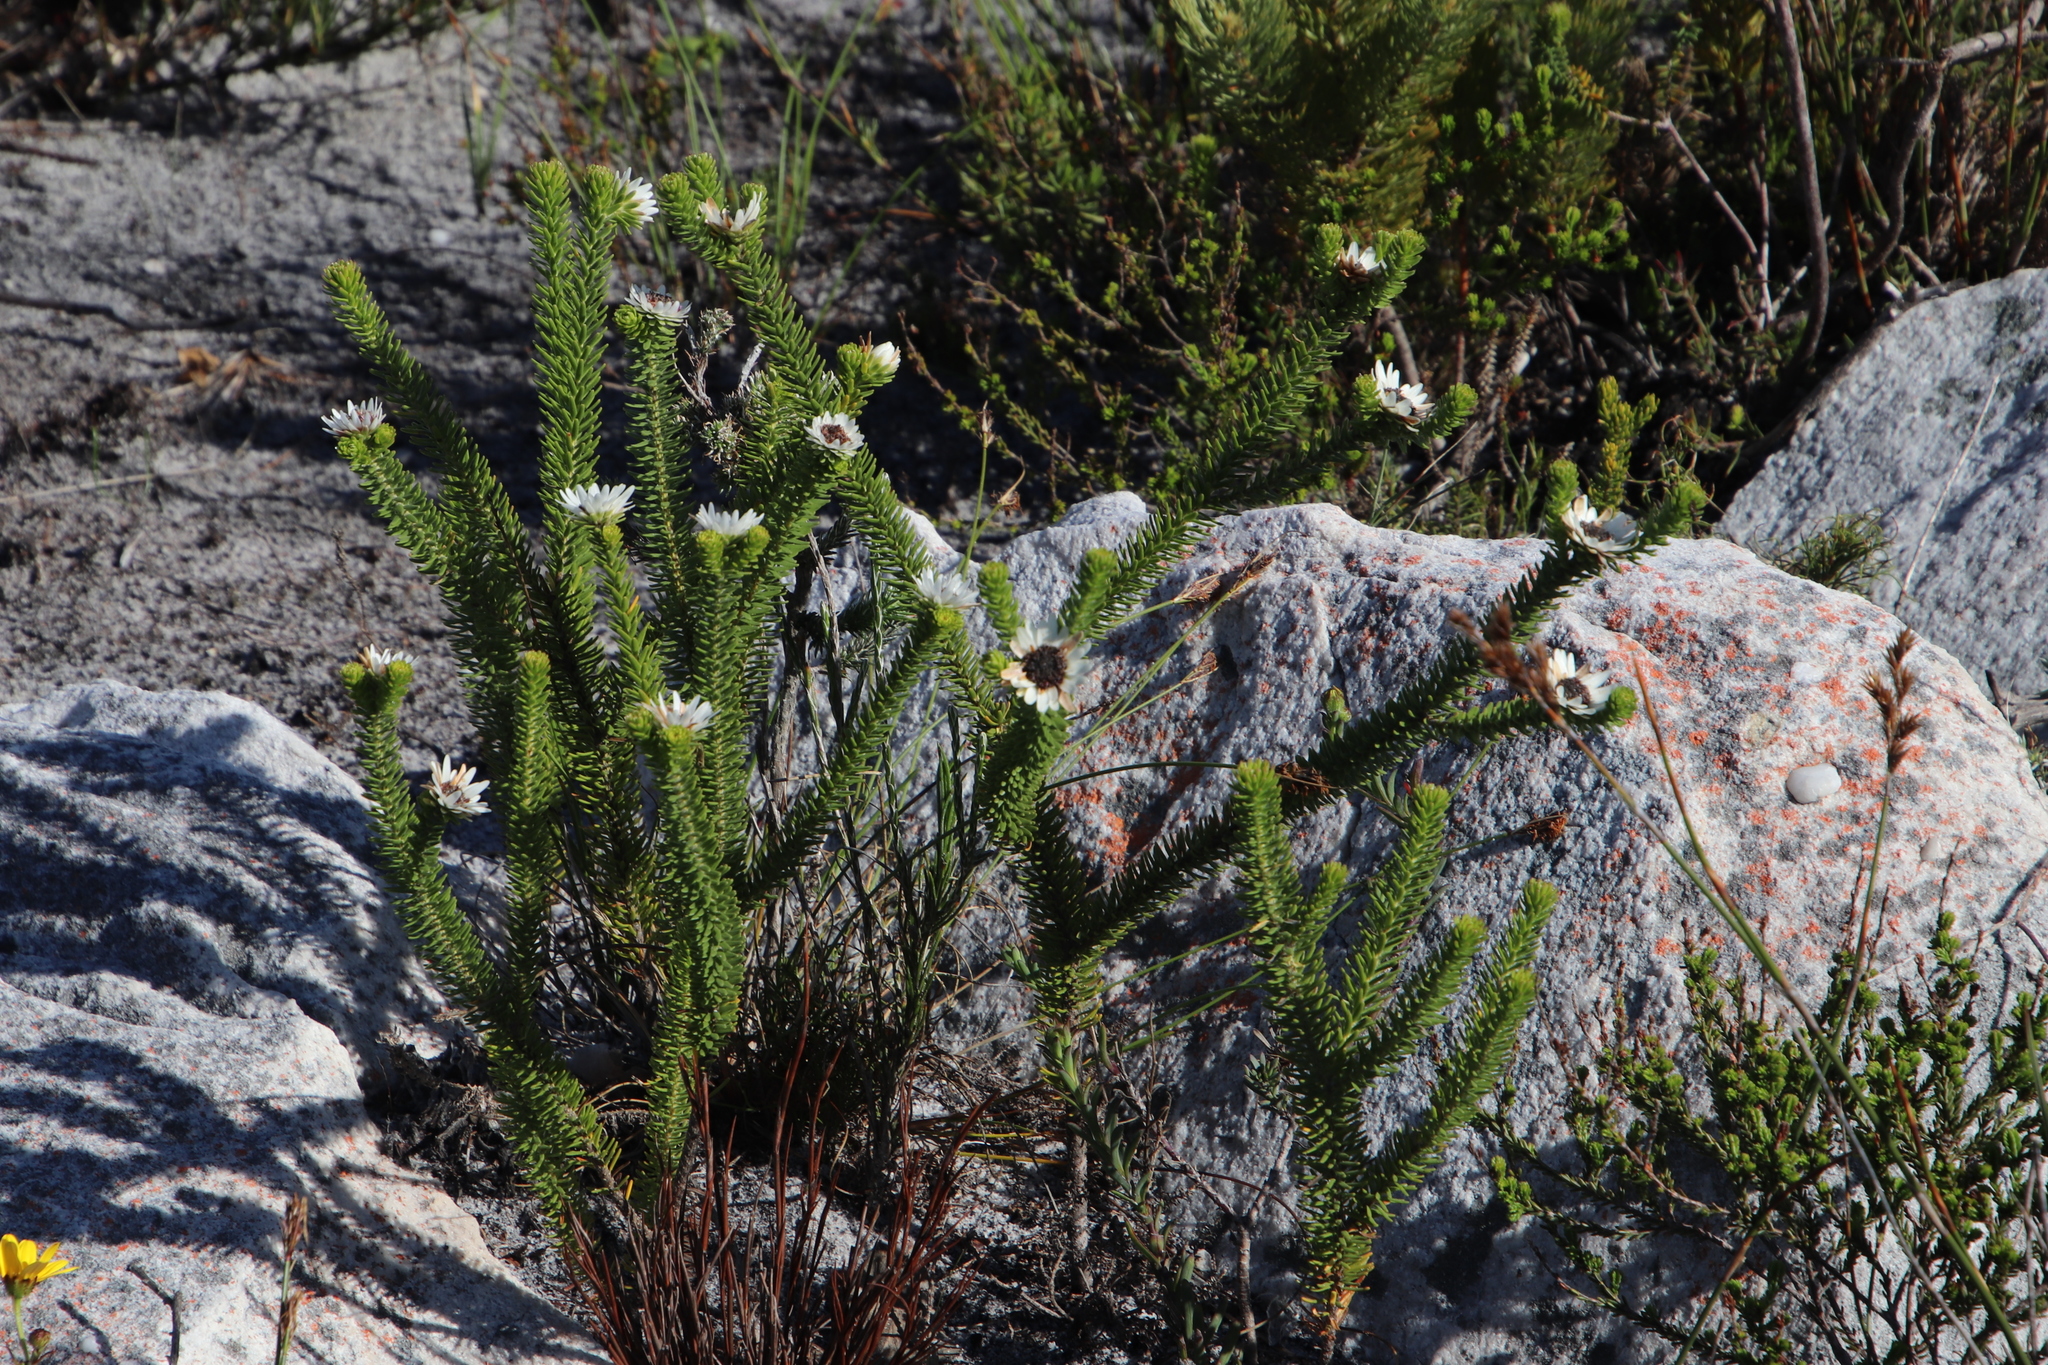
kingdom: Plantae
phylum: Tracheophyta
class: Magnoliopsida
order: Bruniales
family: Bruniaceae
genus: Staavia
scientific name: Staavia dodii
